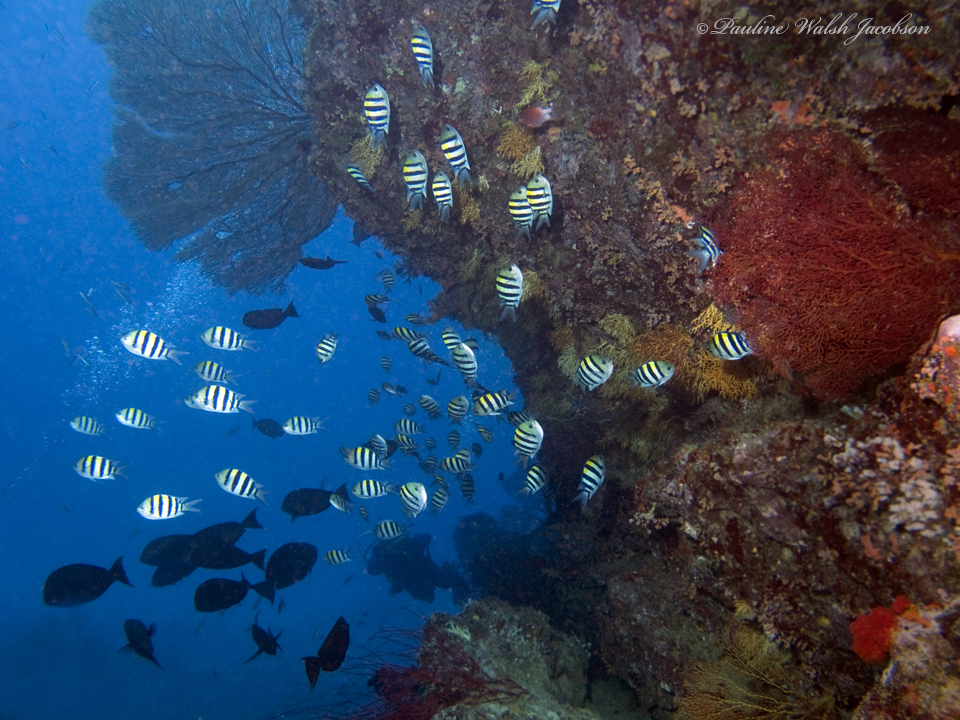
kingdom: Animalia
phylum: Chordata
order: Perciformes
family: Pomacentridae
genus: Abudefduf
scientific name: Abudefduf vaigiensis
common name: Indo-pacific sergeant
